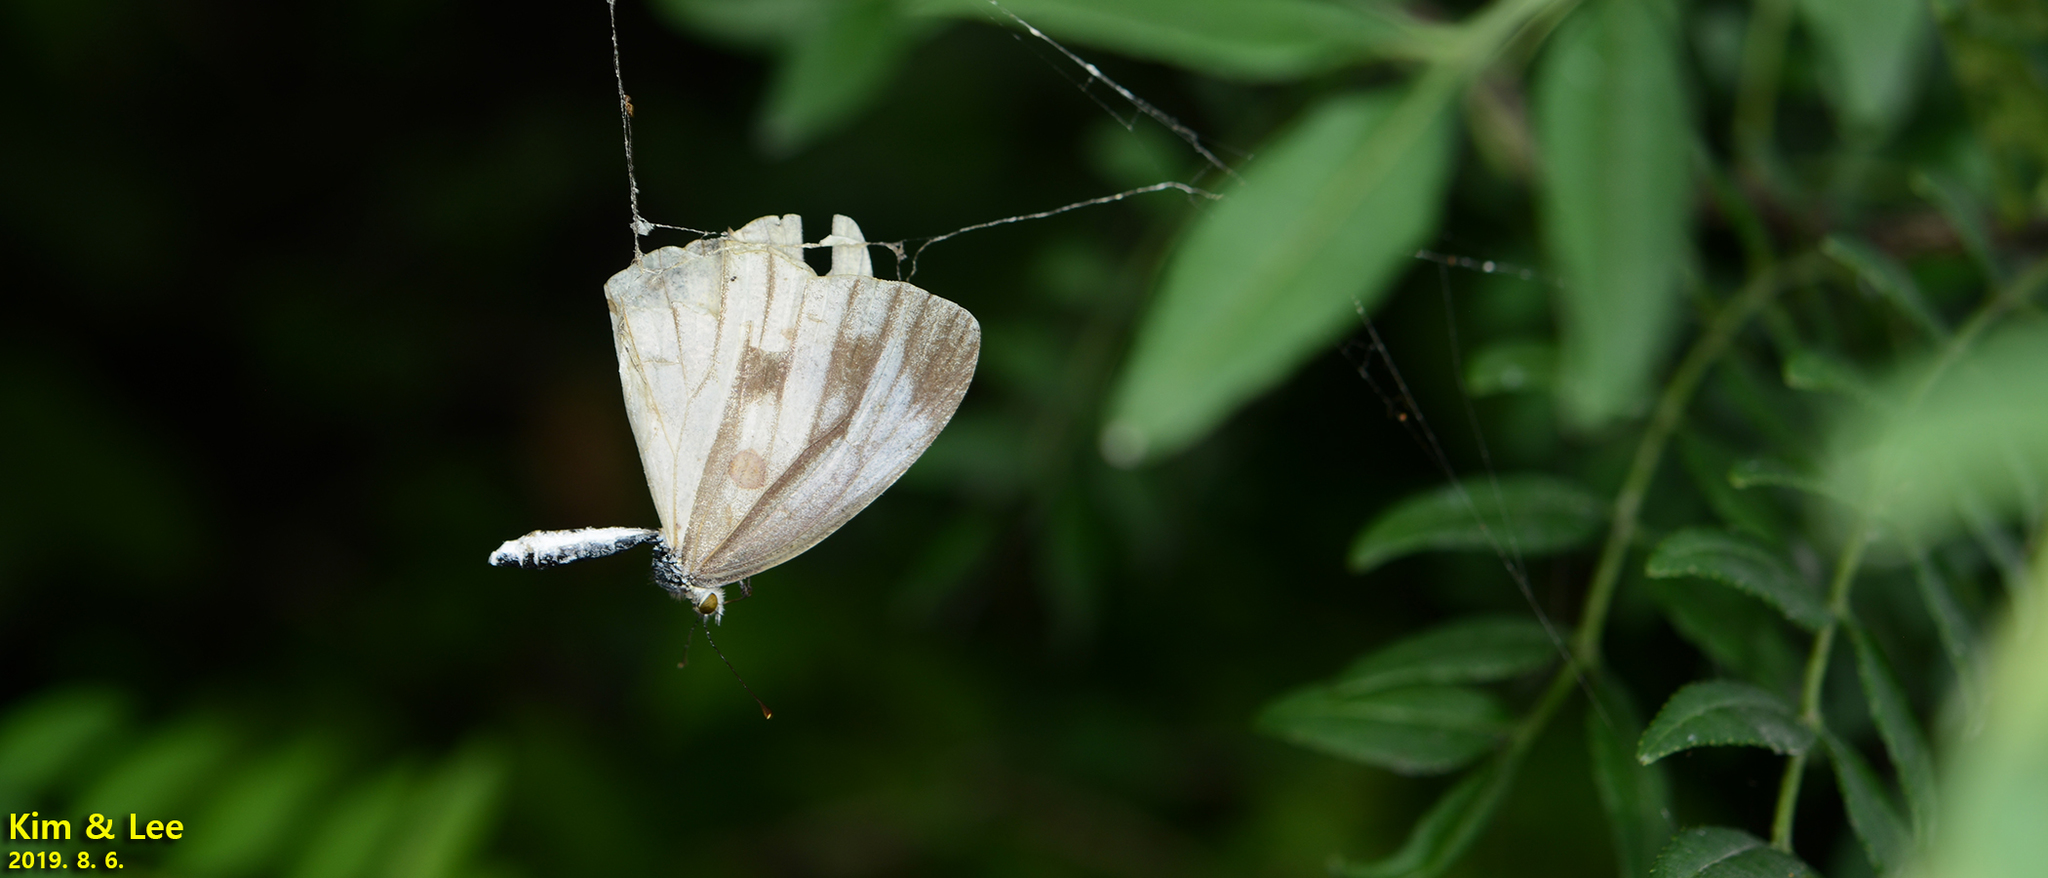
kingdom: Animalia
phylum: Arthropoda
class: Insecta
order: Lepidoptera
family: Pieridae
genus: Pieris
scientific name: Pieris melete
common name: Asian green-veined white
